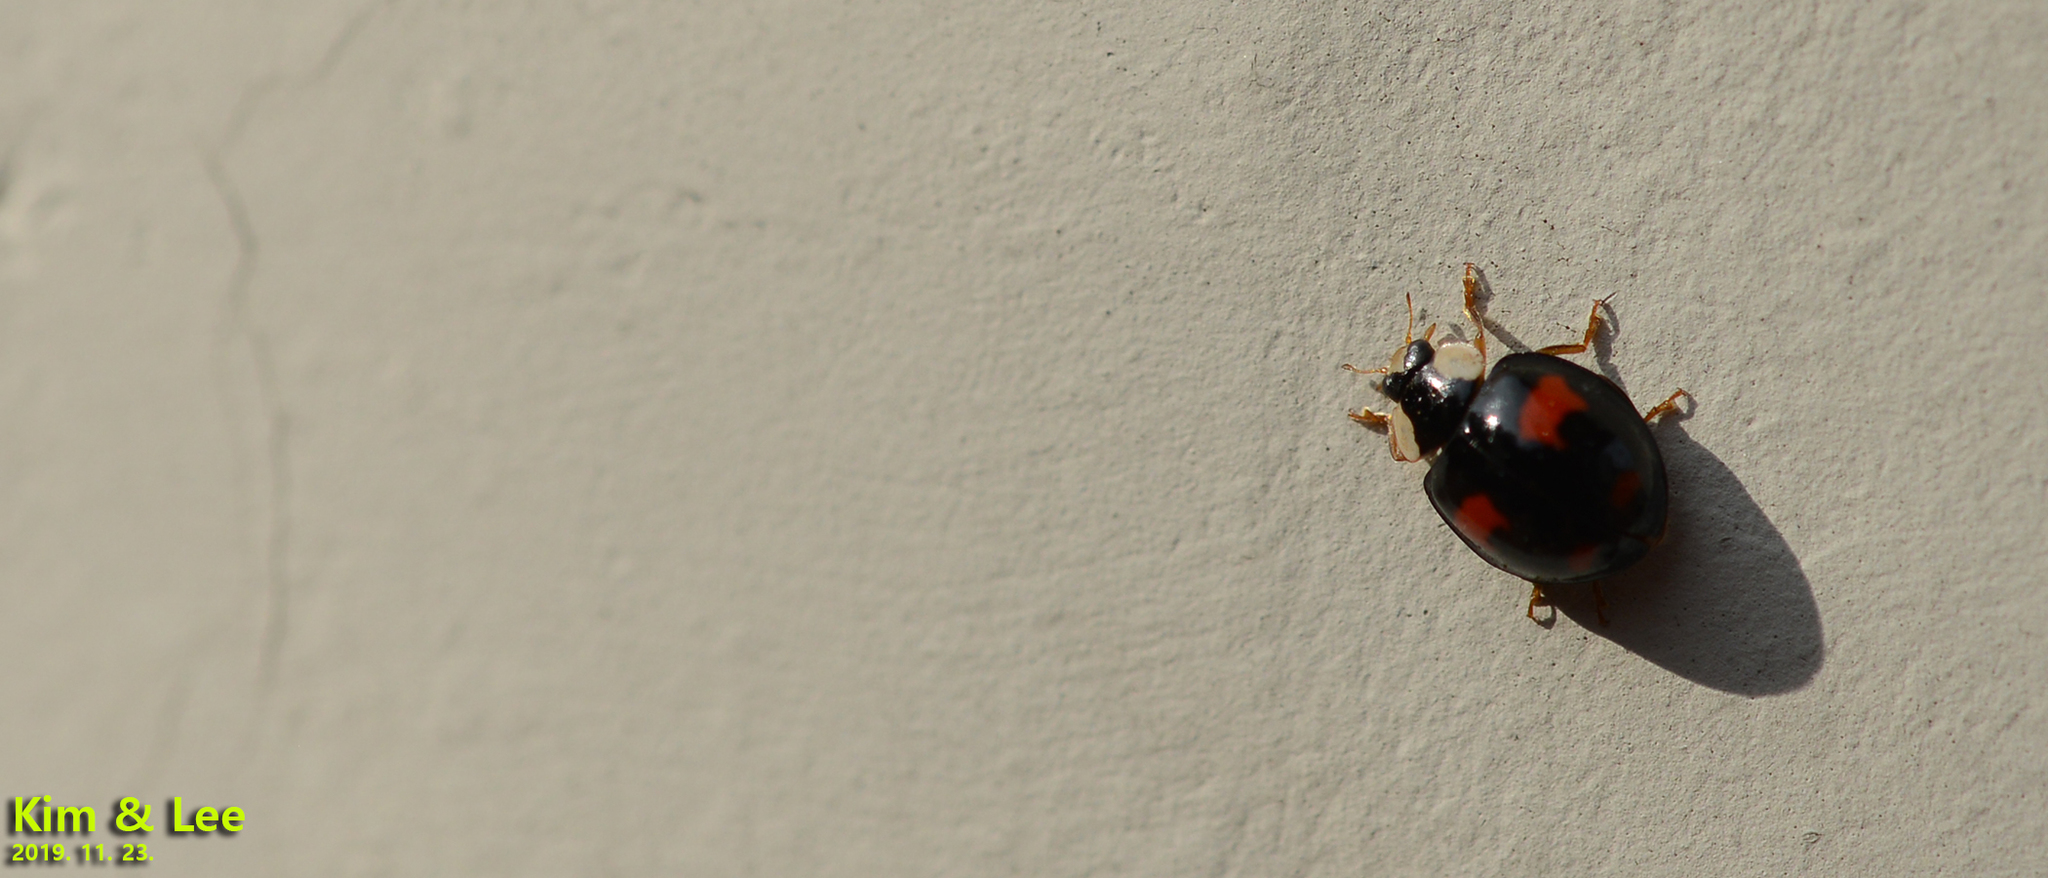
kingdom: Animalia
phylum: Arthropoda
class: Insecta
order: Coleoptera
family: Coccinellidae
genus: Harmonia
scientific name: Harmonia axyridis
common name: Harlequin ladybird
